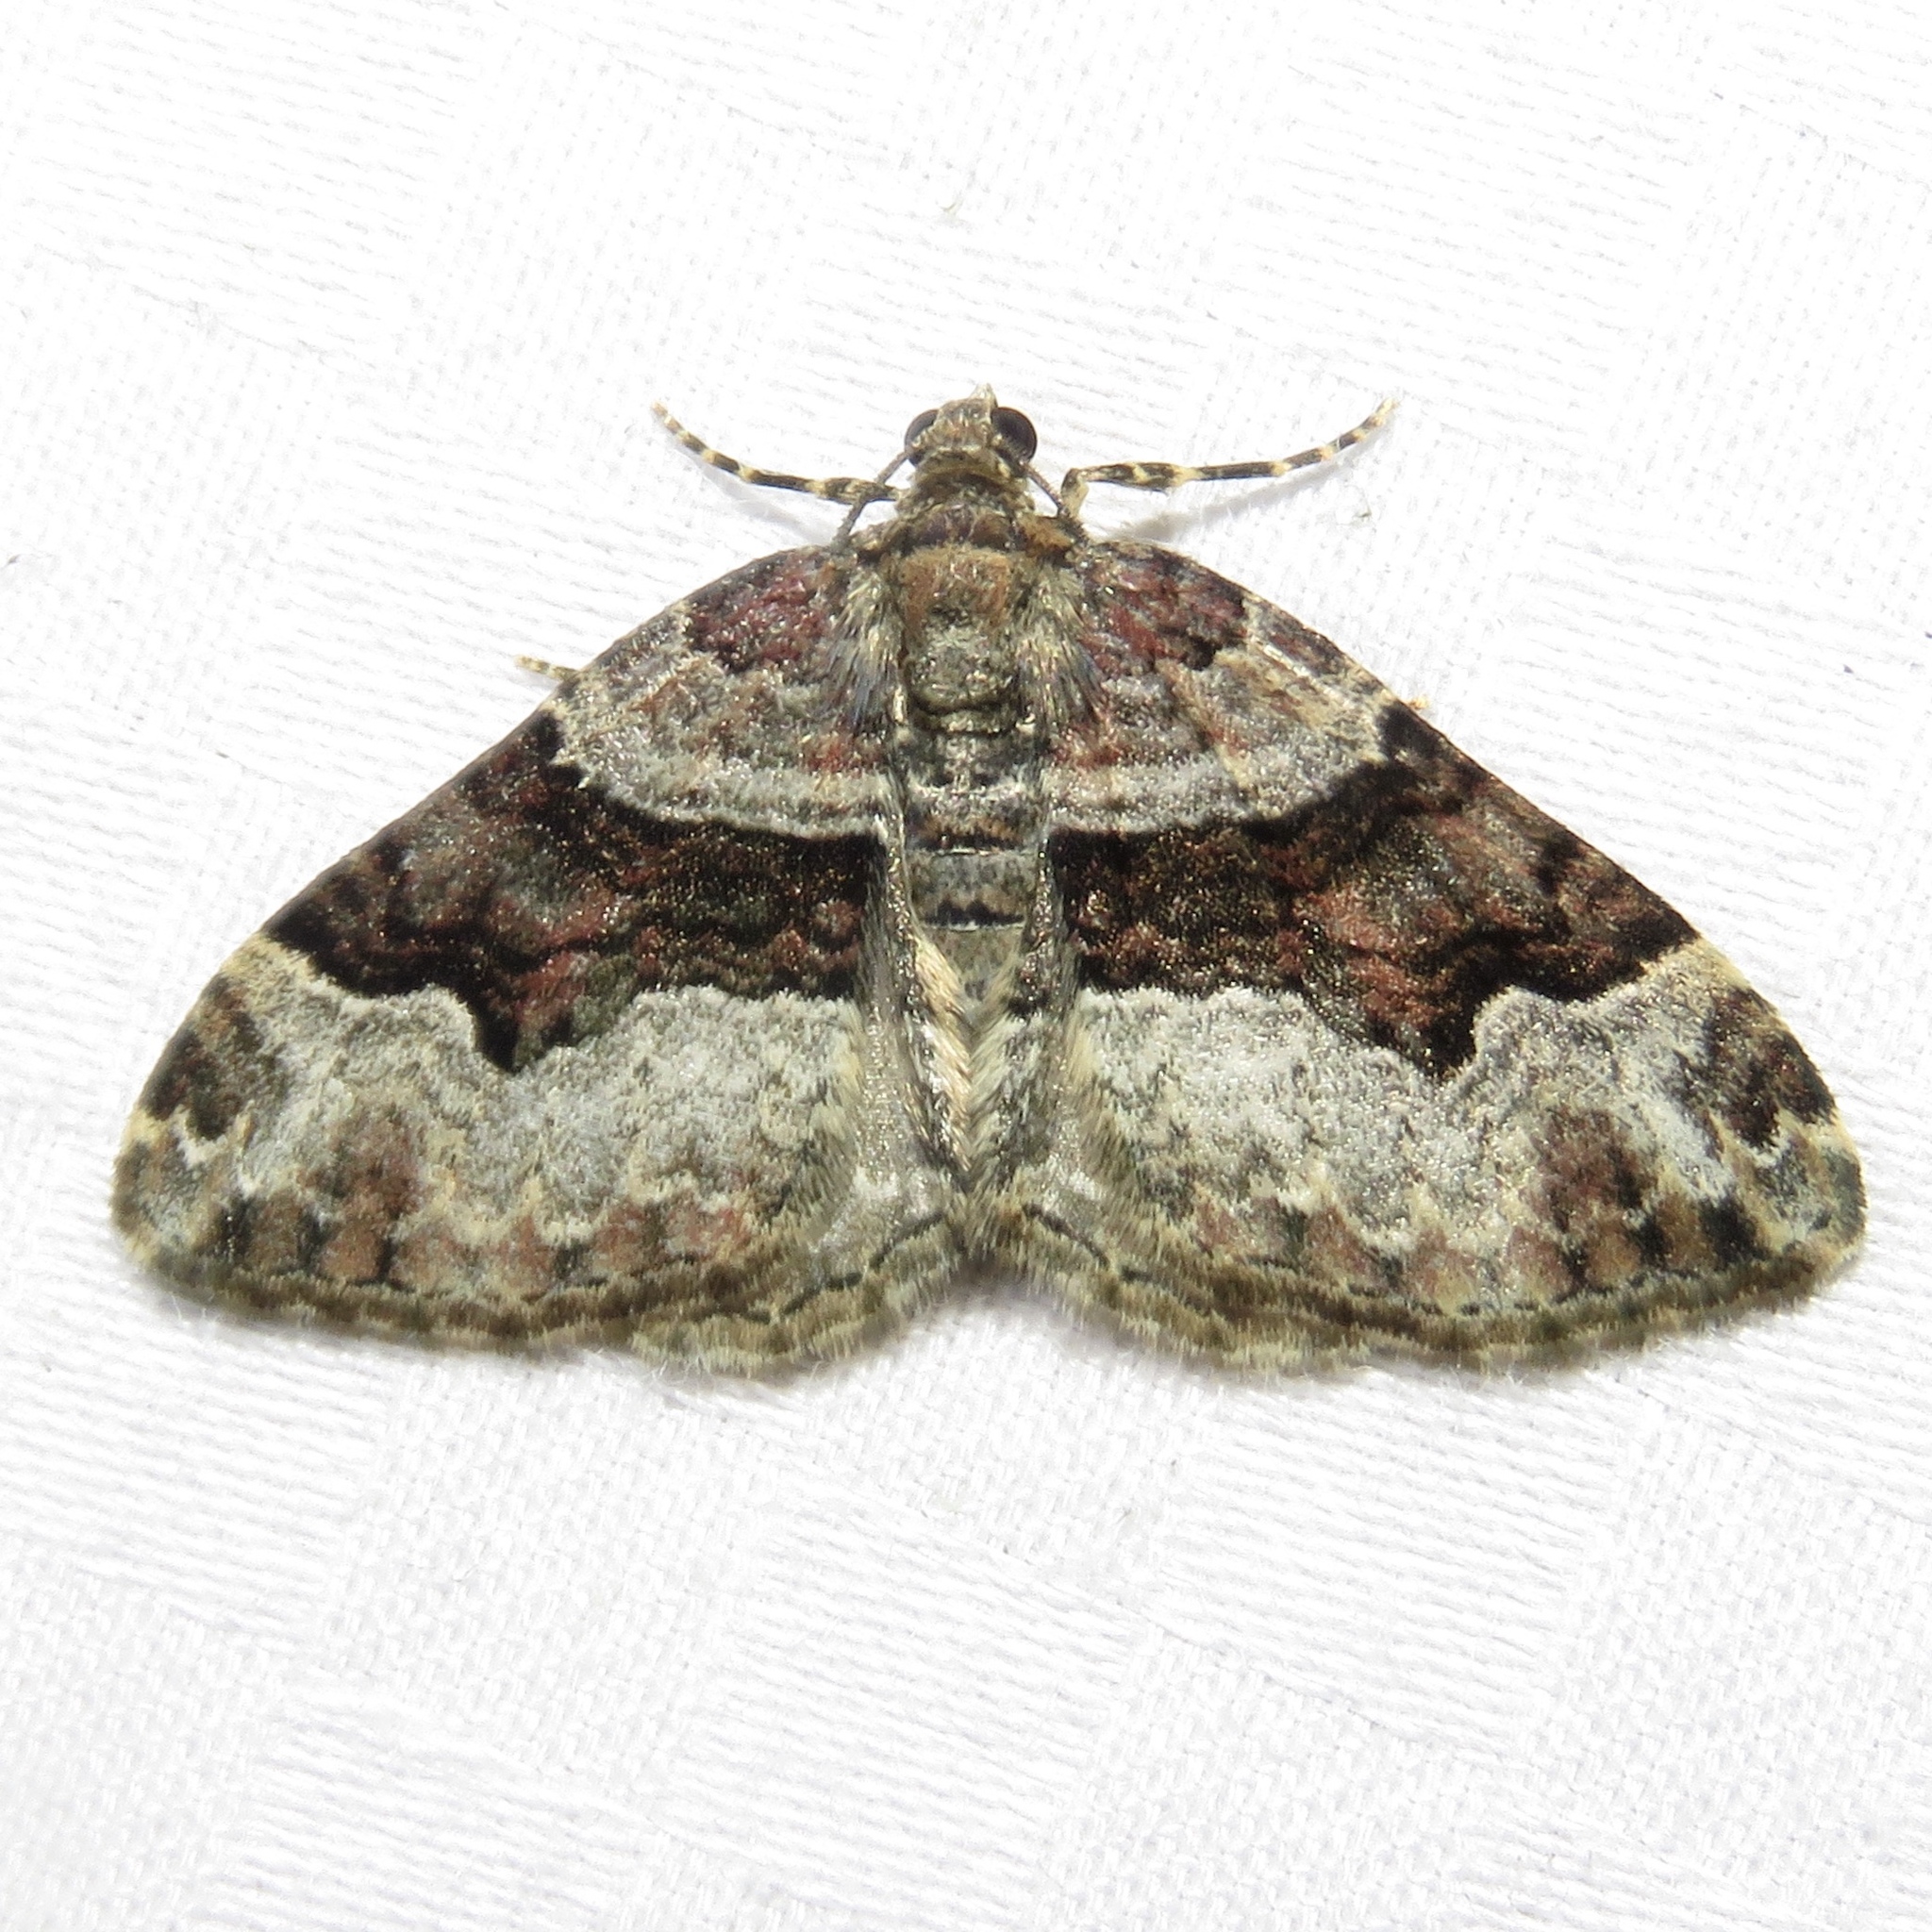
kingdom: Animalia
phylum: Arthropoda
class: Insecta
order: Lepidoptera
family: Geometridae
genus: Xanthorhoe
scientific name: Xanthorhoe lacustrata
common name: Toothed brown carpet
